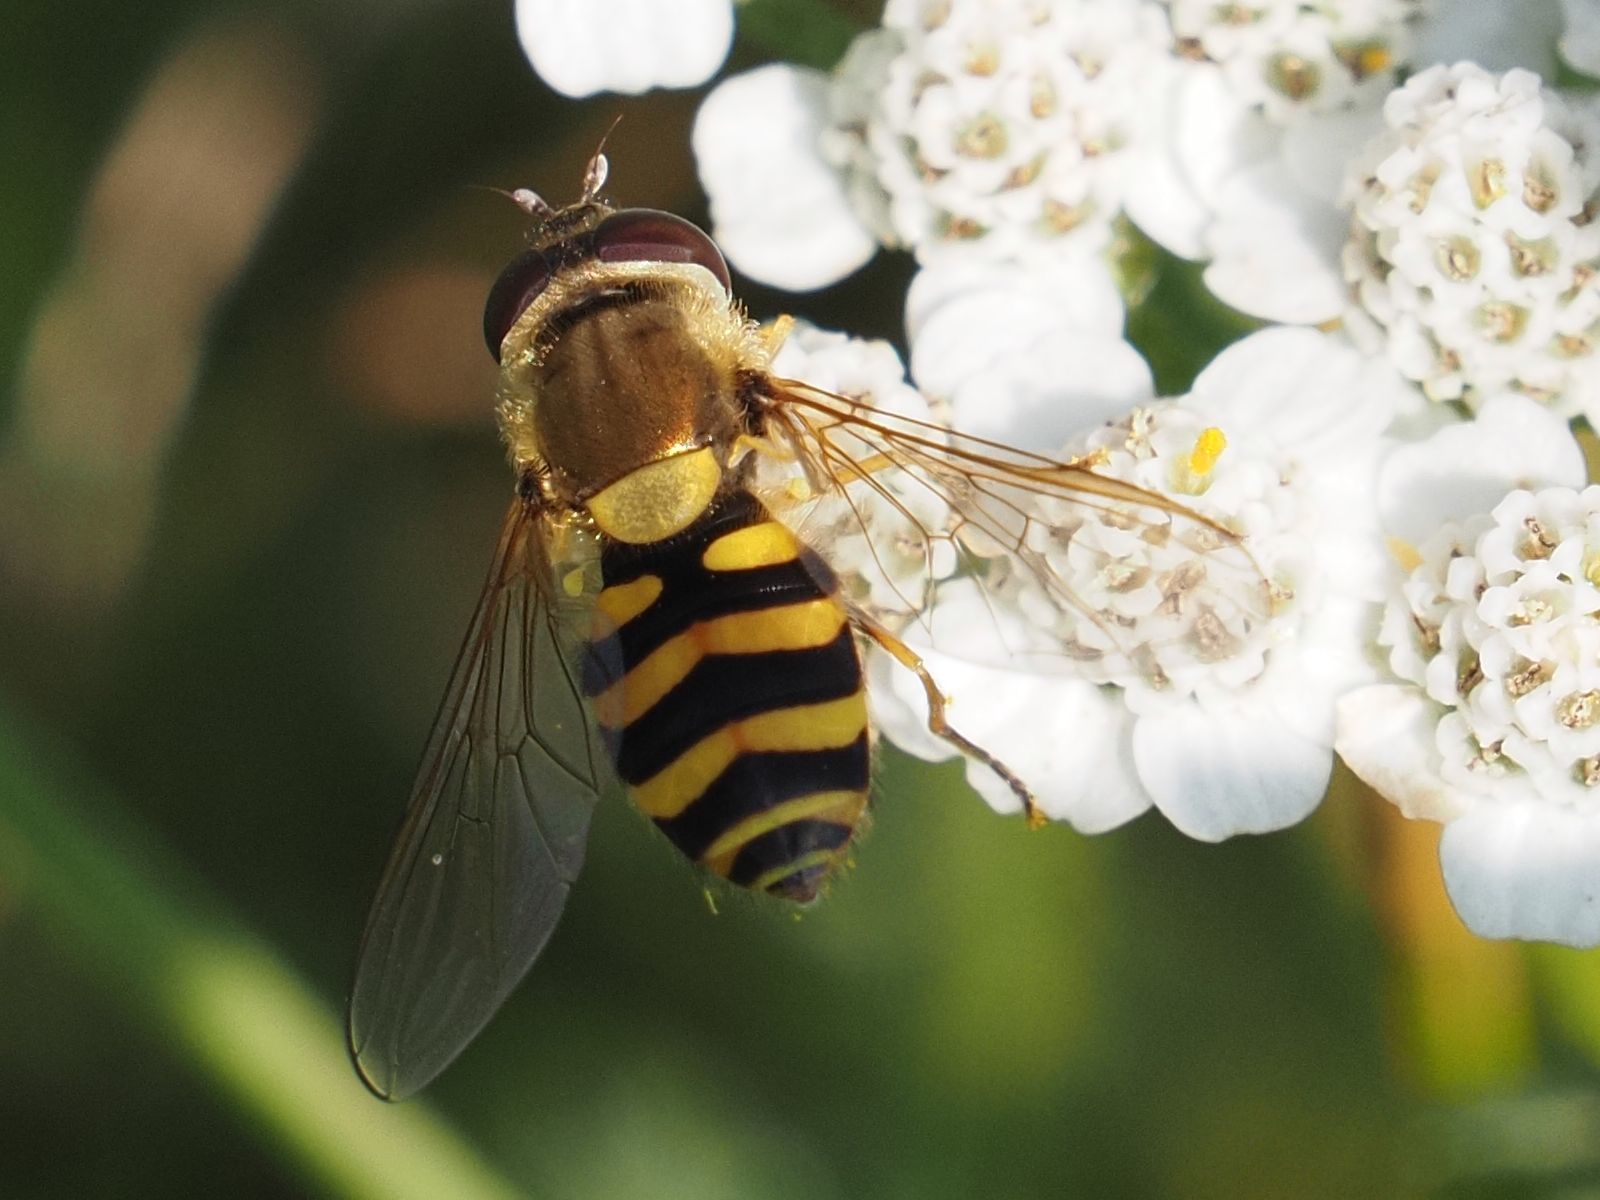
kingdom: Animalia
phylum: Arthropoda
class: Insecta
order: Diptera
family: Syrphidae
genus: Syrphus
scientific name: Syrphus
